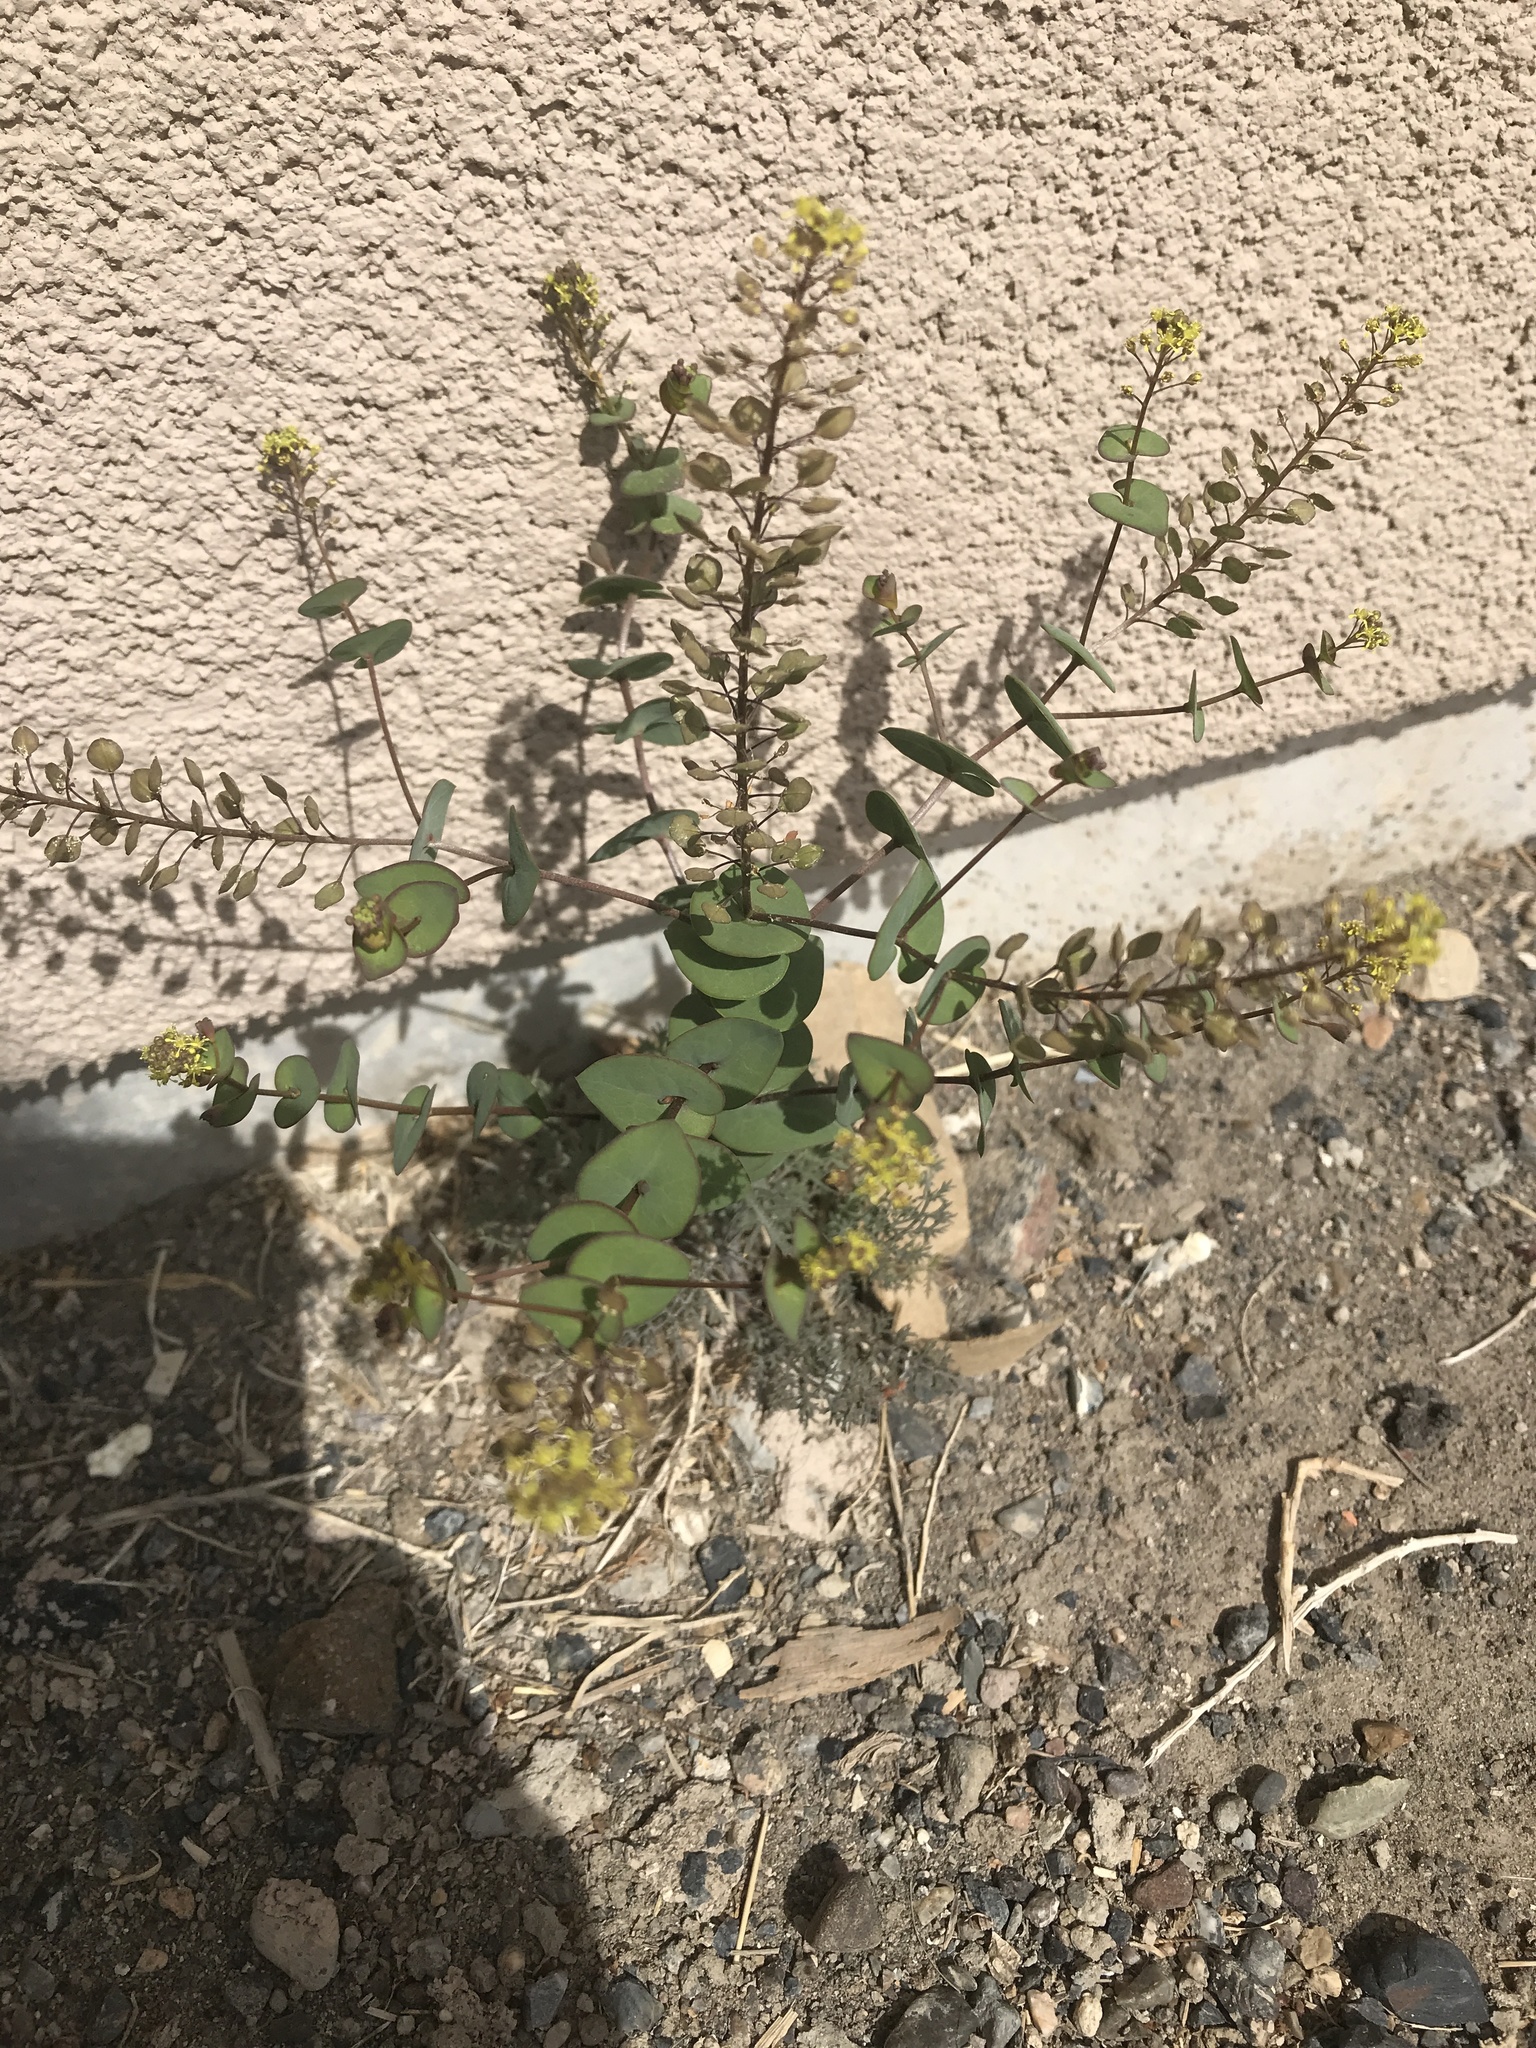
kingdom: Plantae
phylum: Tracheophyta
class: Magnoliopsida
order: Brassicales
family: Brassicaceae
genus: Lepidium
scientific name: Lepidium perfoliatum
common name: Perfoliate pepperwort
